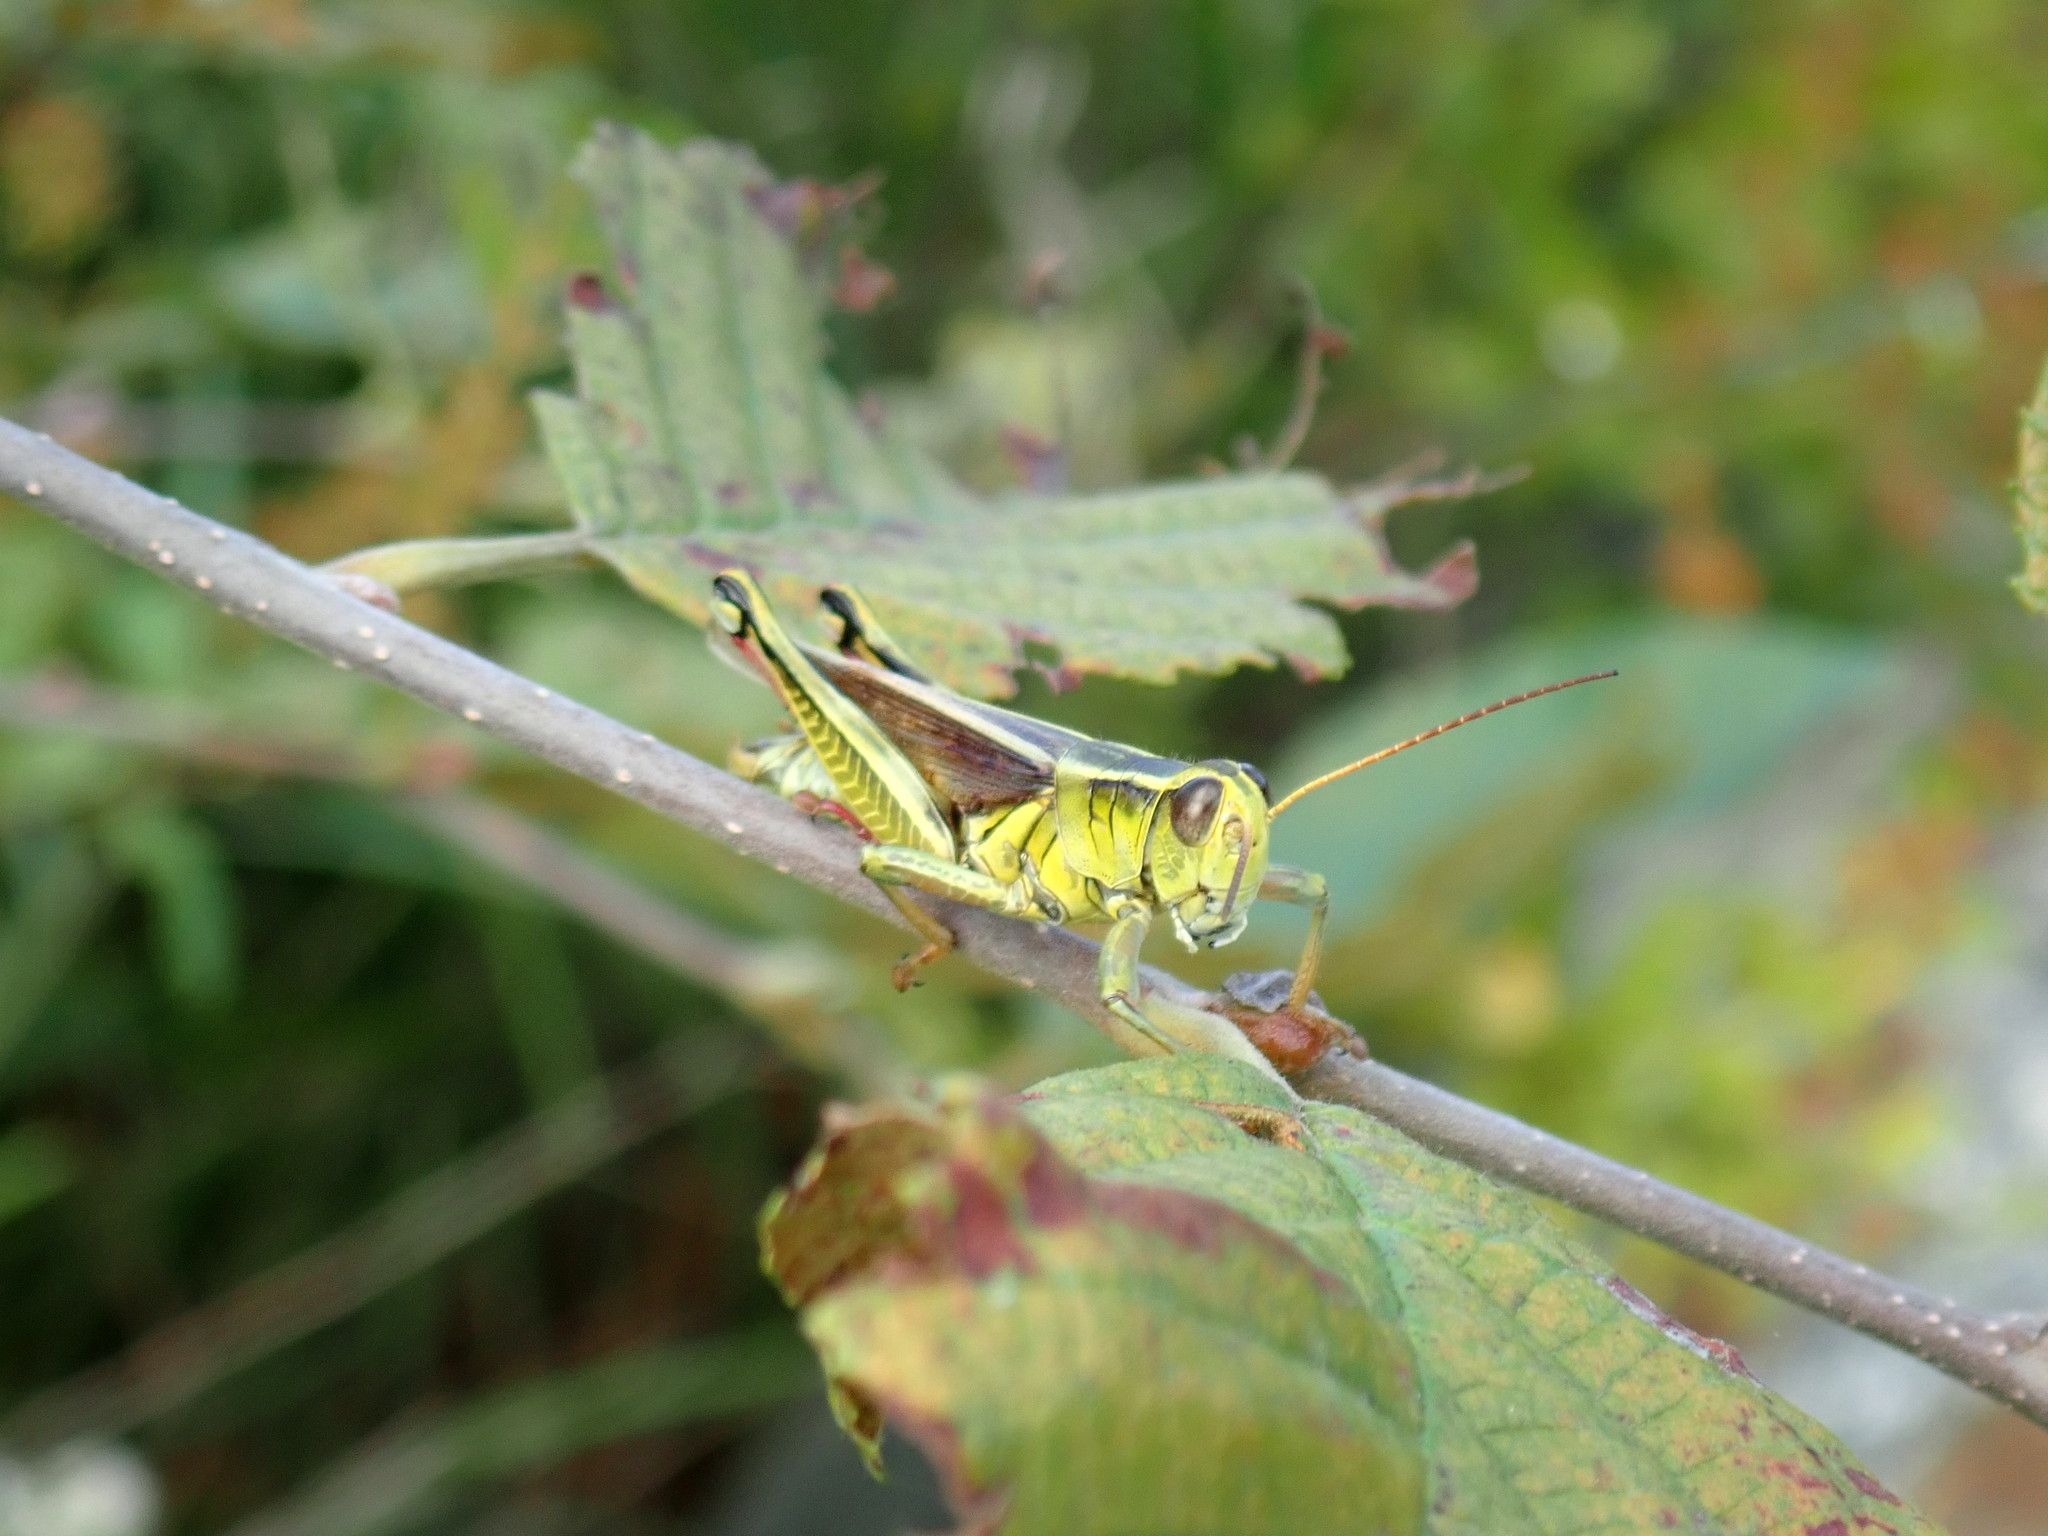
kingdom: Animalia
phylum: Arthropoda
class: Insecta
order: Orthoptera
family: Acrididae
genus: Melanoplus
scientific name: Melanoplus bivittatus
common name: Two-striped grasshopper
